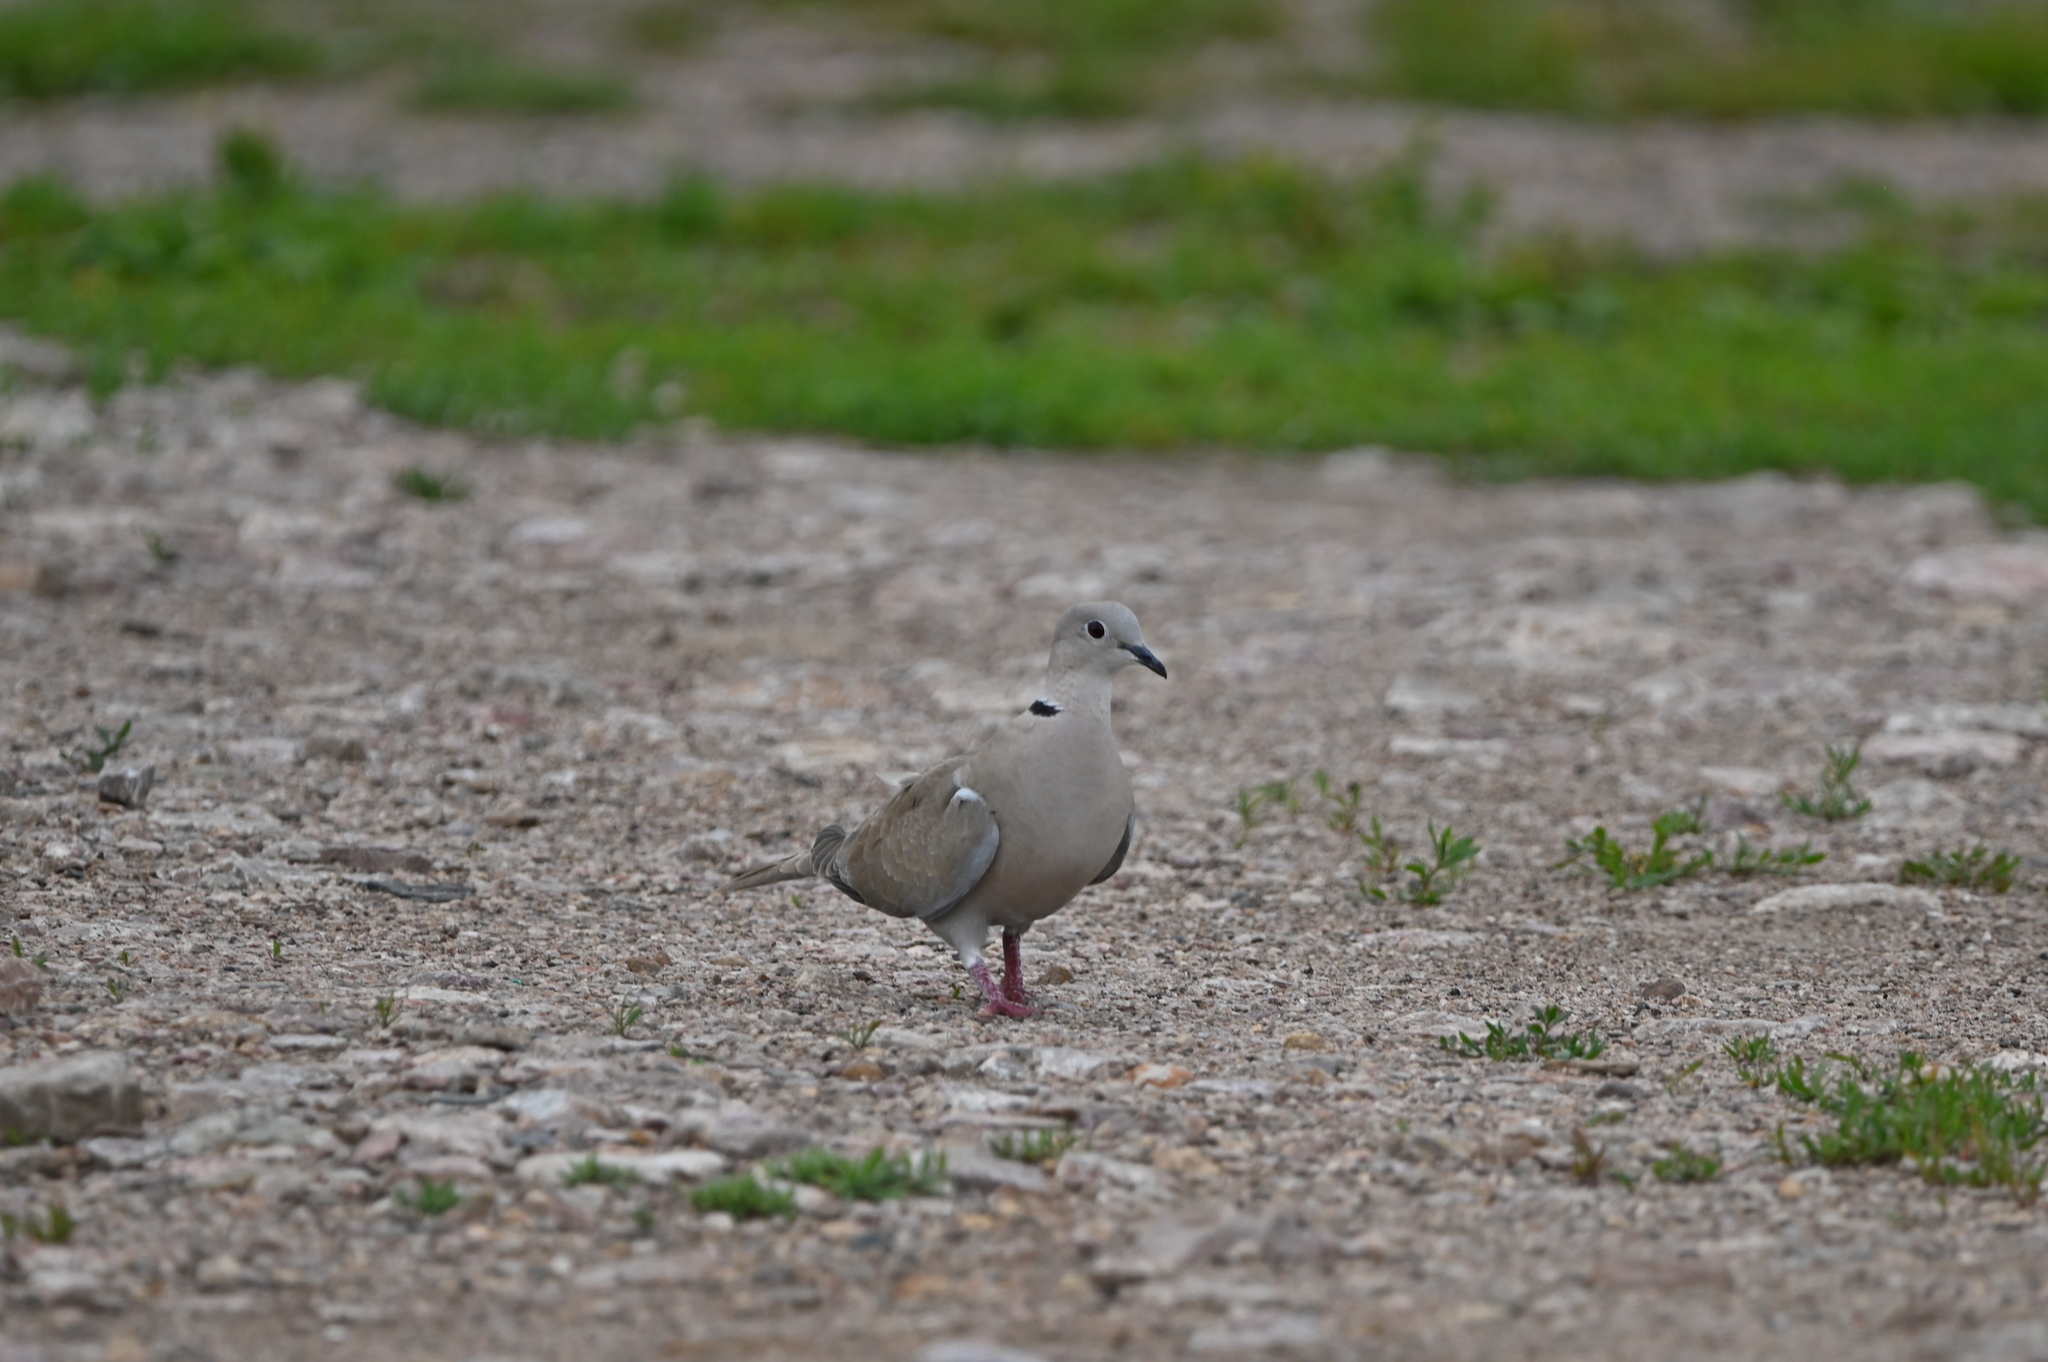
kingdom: Animalia
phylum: Chordata
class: Aves
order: Columbiformes
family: Columbidae
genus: Streptopelia
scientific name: Streptopelia decaocto
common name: Eurasian collared dove
